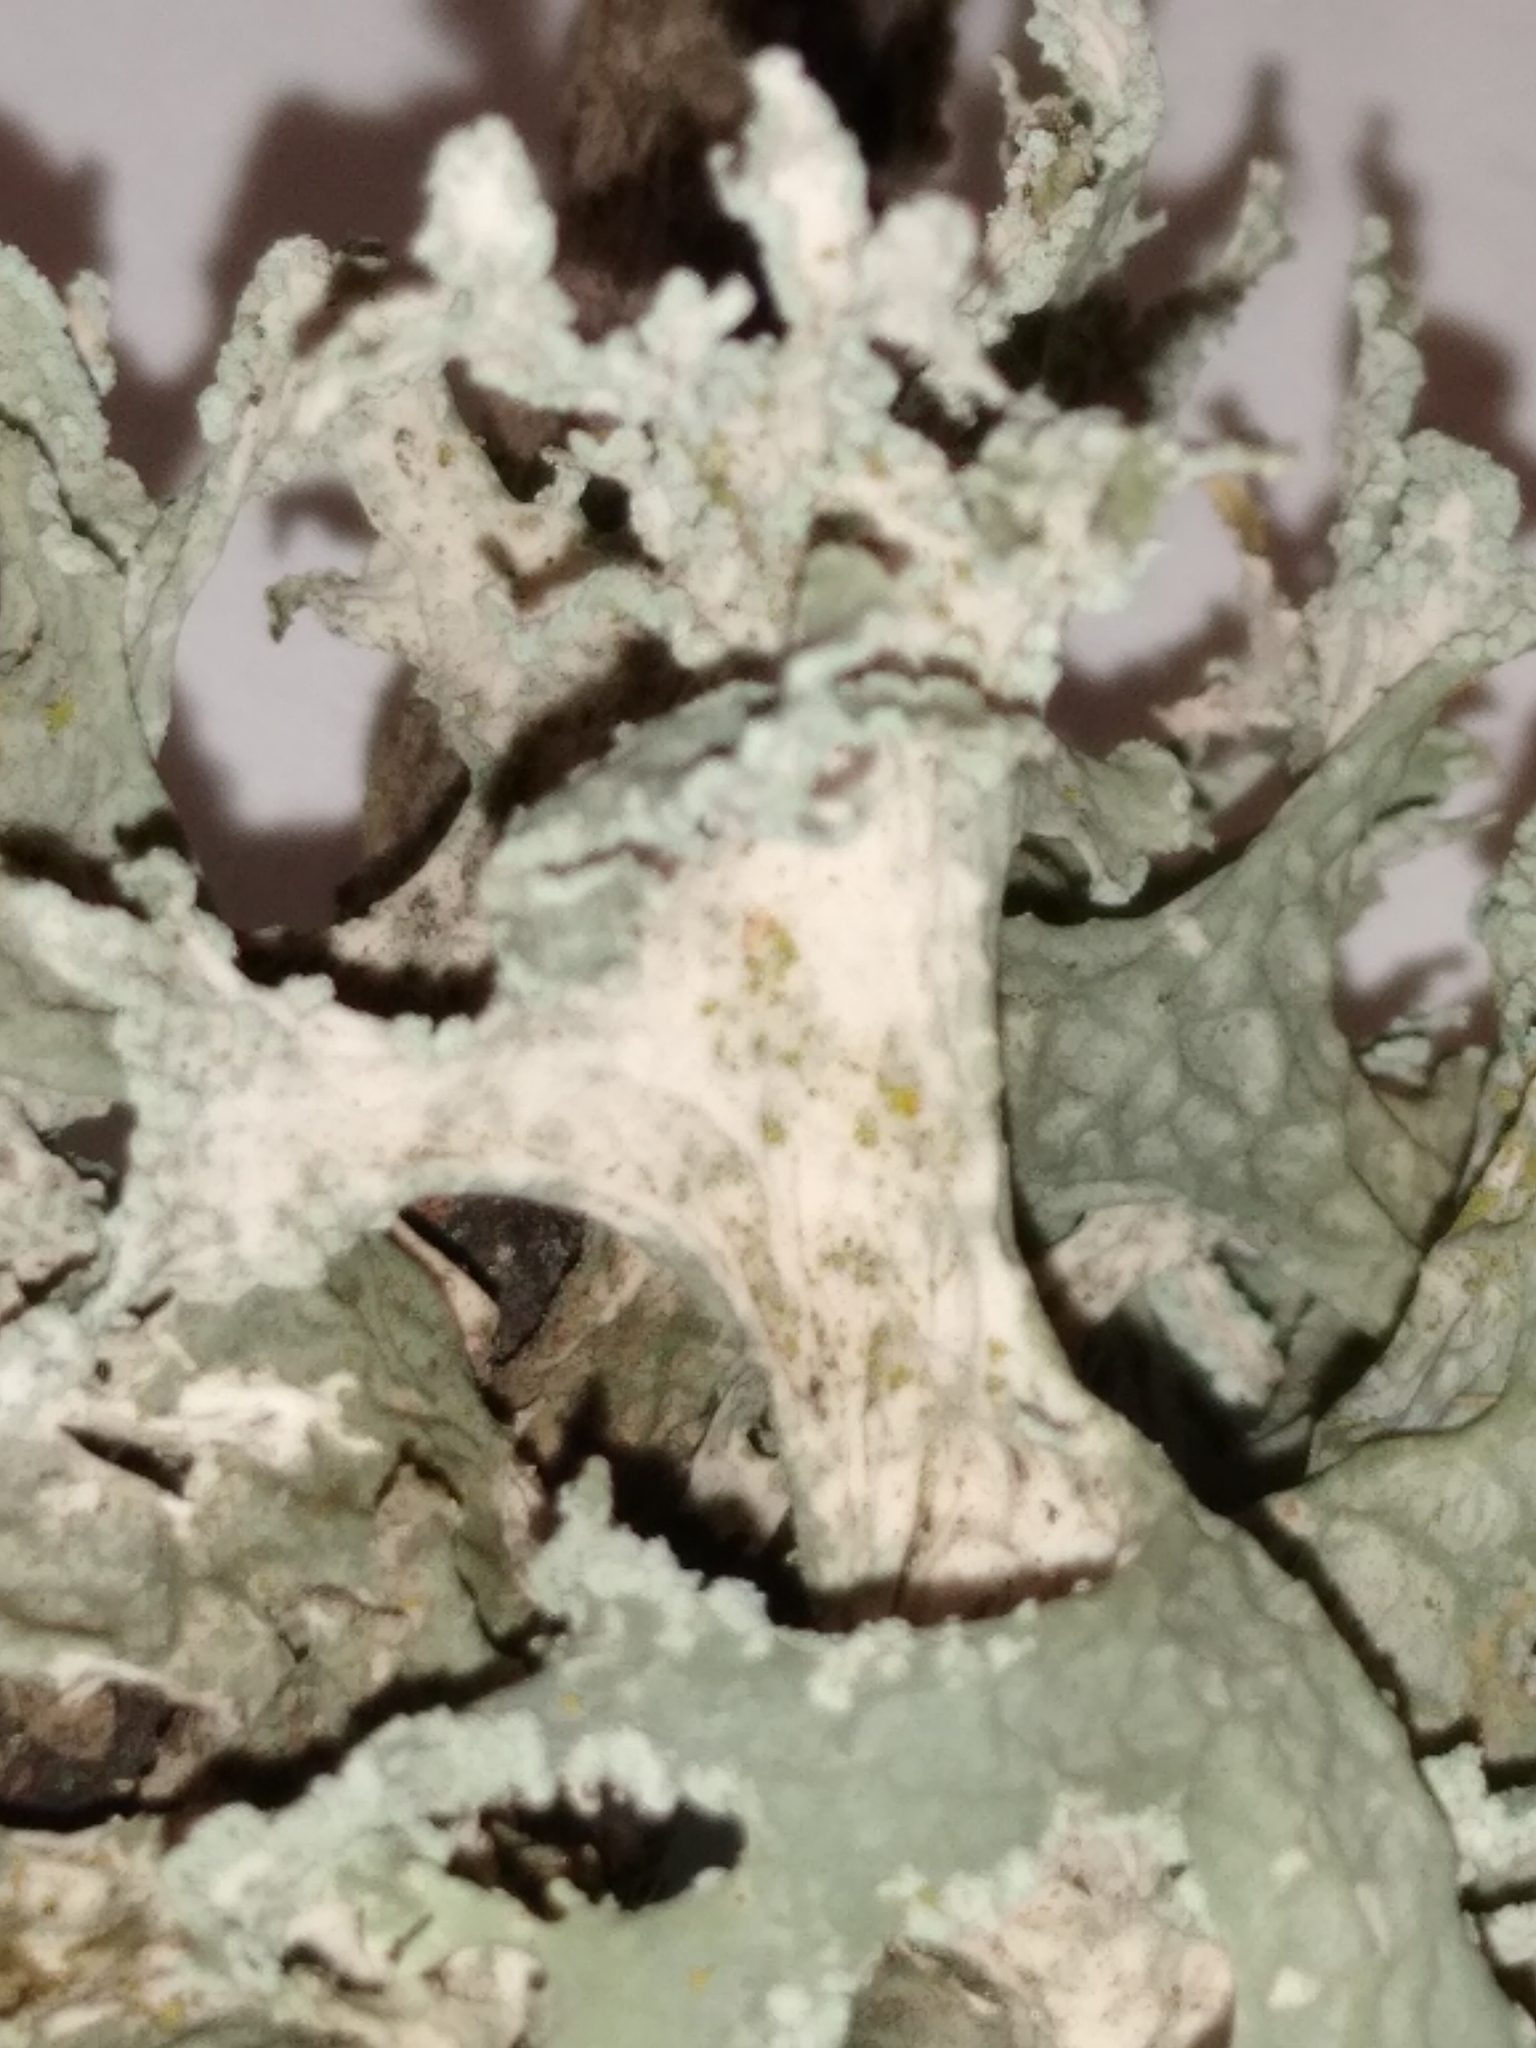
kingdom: Fungi
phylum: Ascomycota
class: Lecanoromycetes
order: Lecanorales
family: Parmeliaceae
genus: Evernia
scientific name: Evernia prunastri
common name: Oak moss
